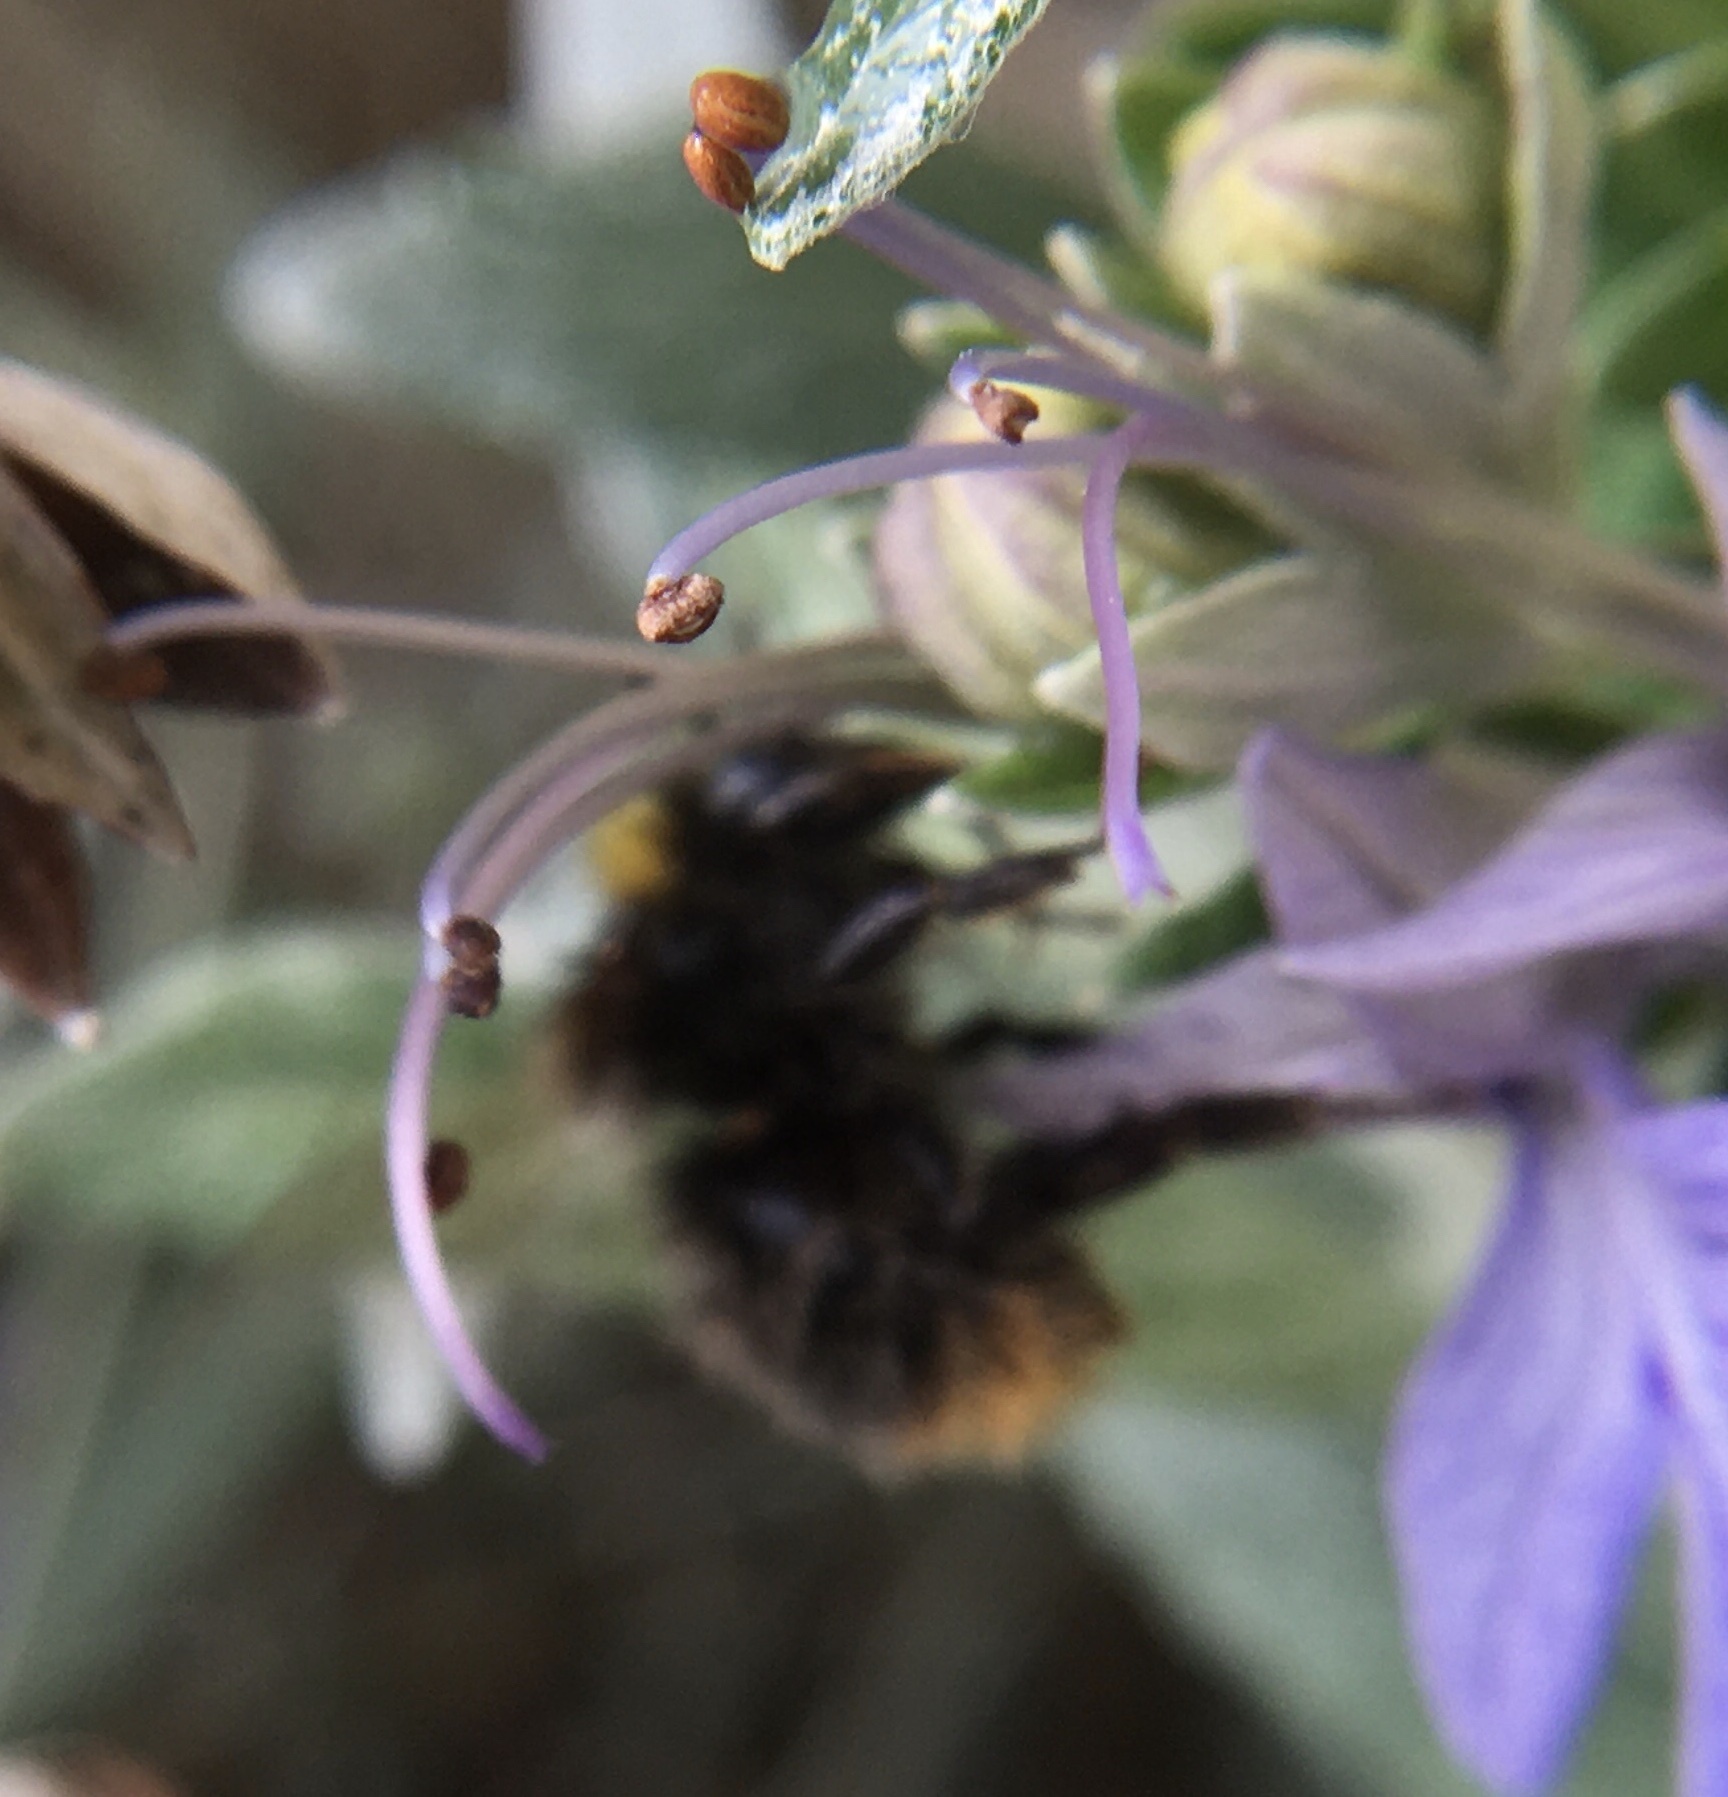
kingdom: Animalia
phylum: Arthropoda
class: Insecta
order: Hymenoptera
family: Apidae
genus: Bombus
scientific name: Bombus pratorum
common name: Early humble-bee
